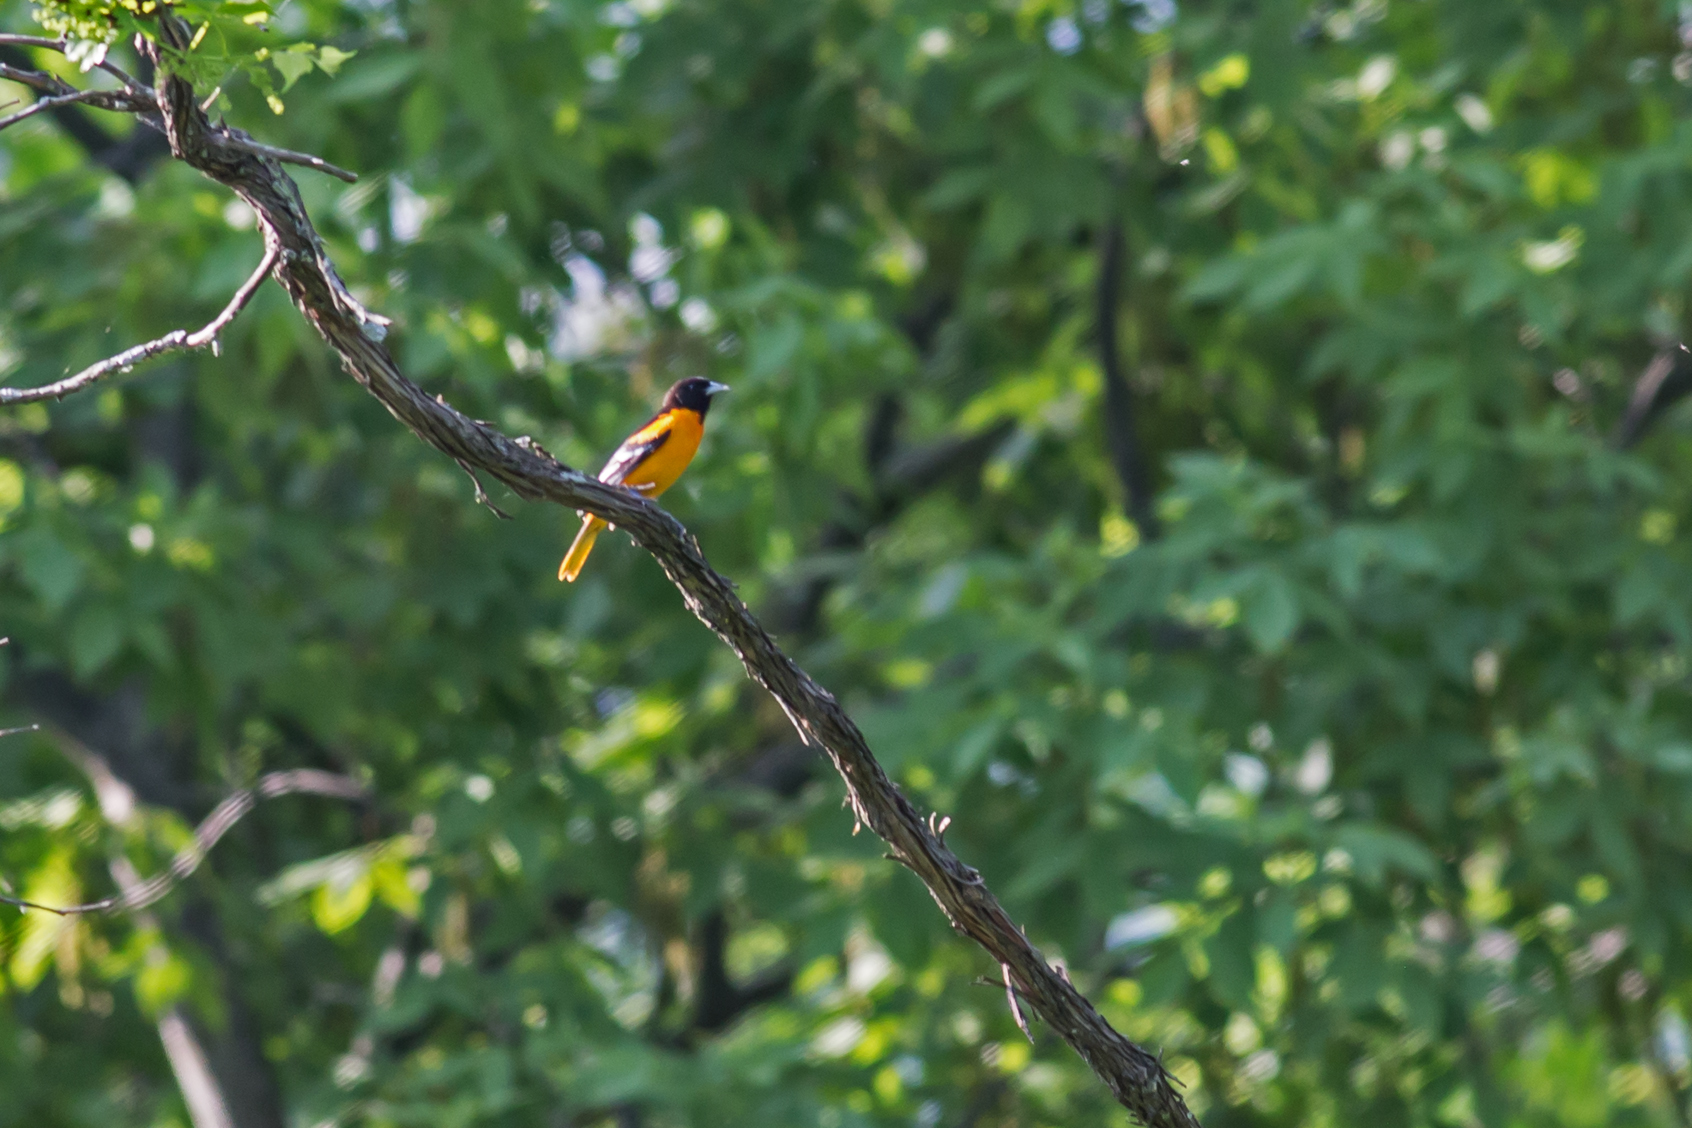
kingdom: Animalia
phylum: Chordata
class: Aves
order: Passeriformes
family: Icteridae
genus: Icterus
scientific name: Icterus galbula
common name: Baltimore oriole
